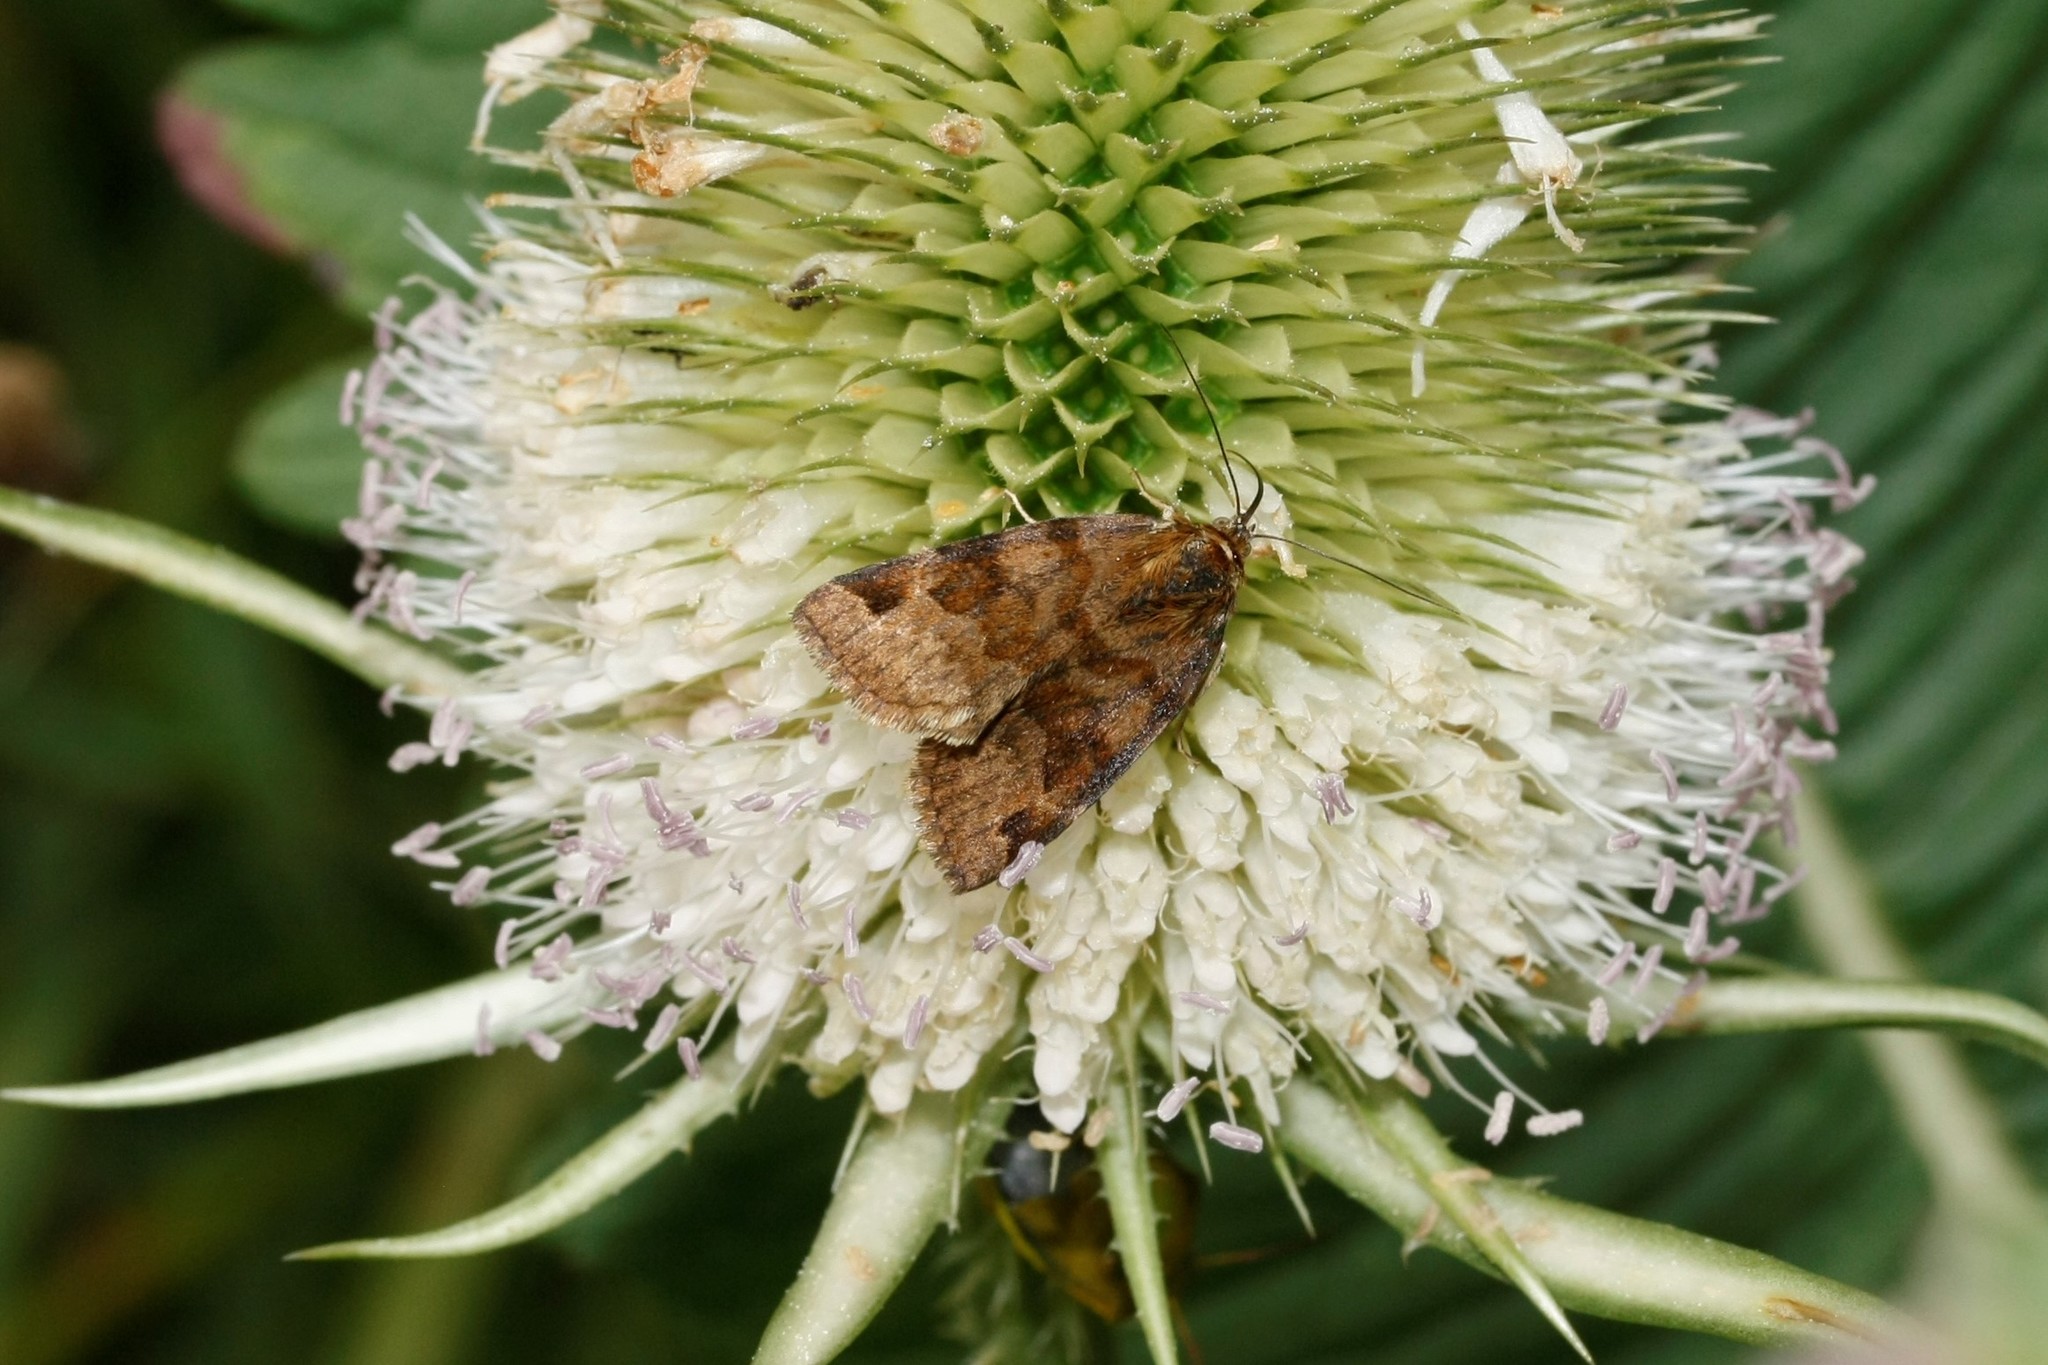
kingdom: Animalia
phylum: Arthropoda
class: Insecta
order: Lepidoptera
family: Erebidae
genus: Euclidia
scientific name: Euclidia glyphica
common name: Burnet companion
